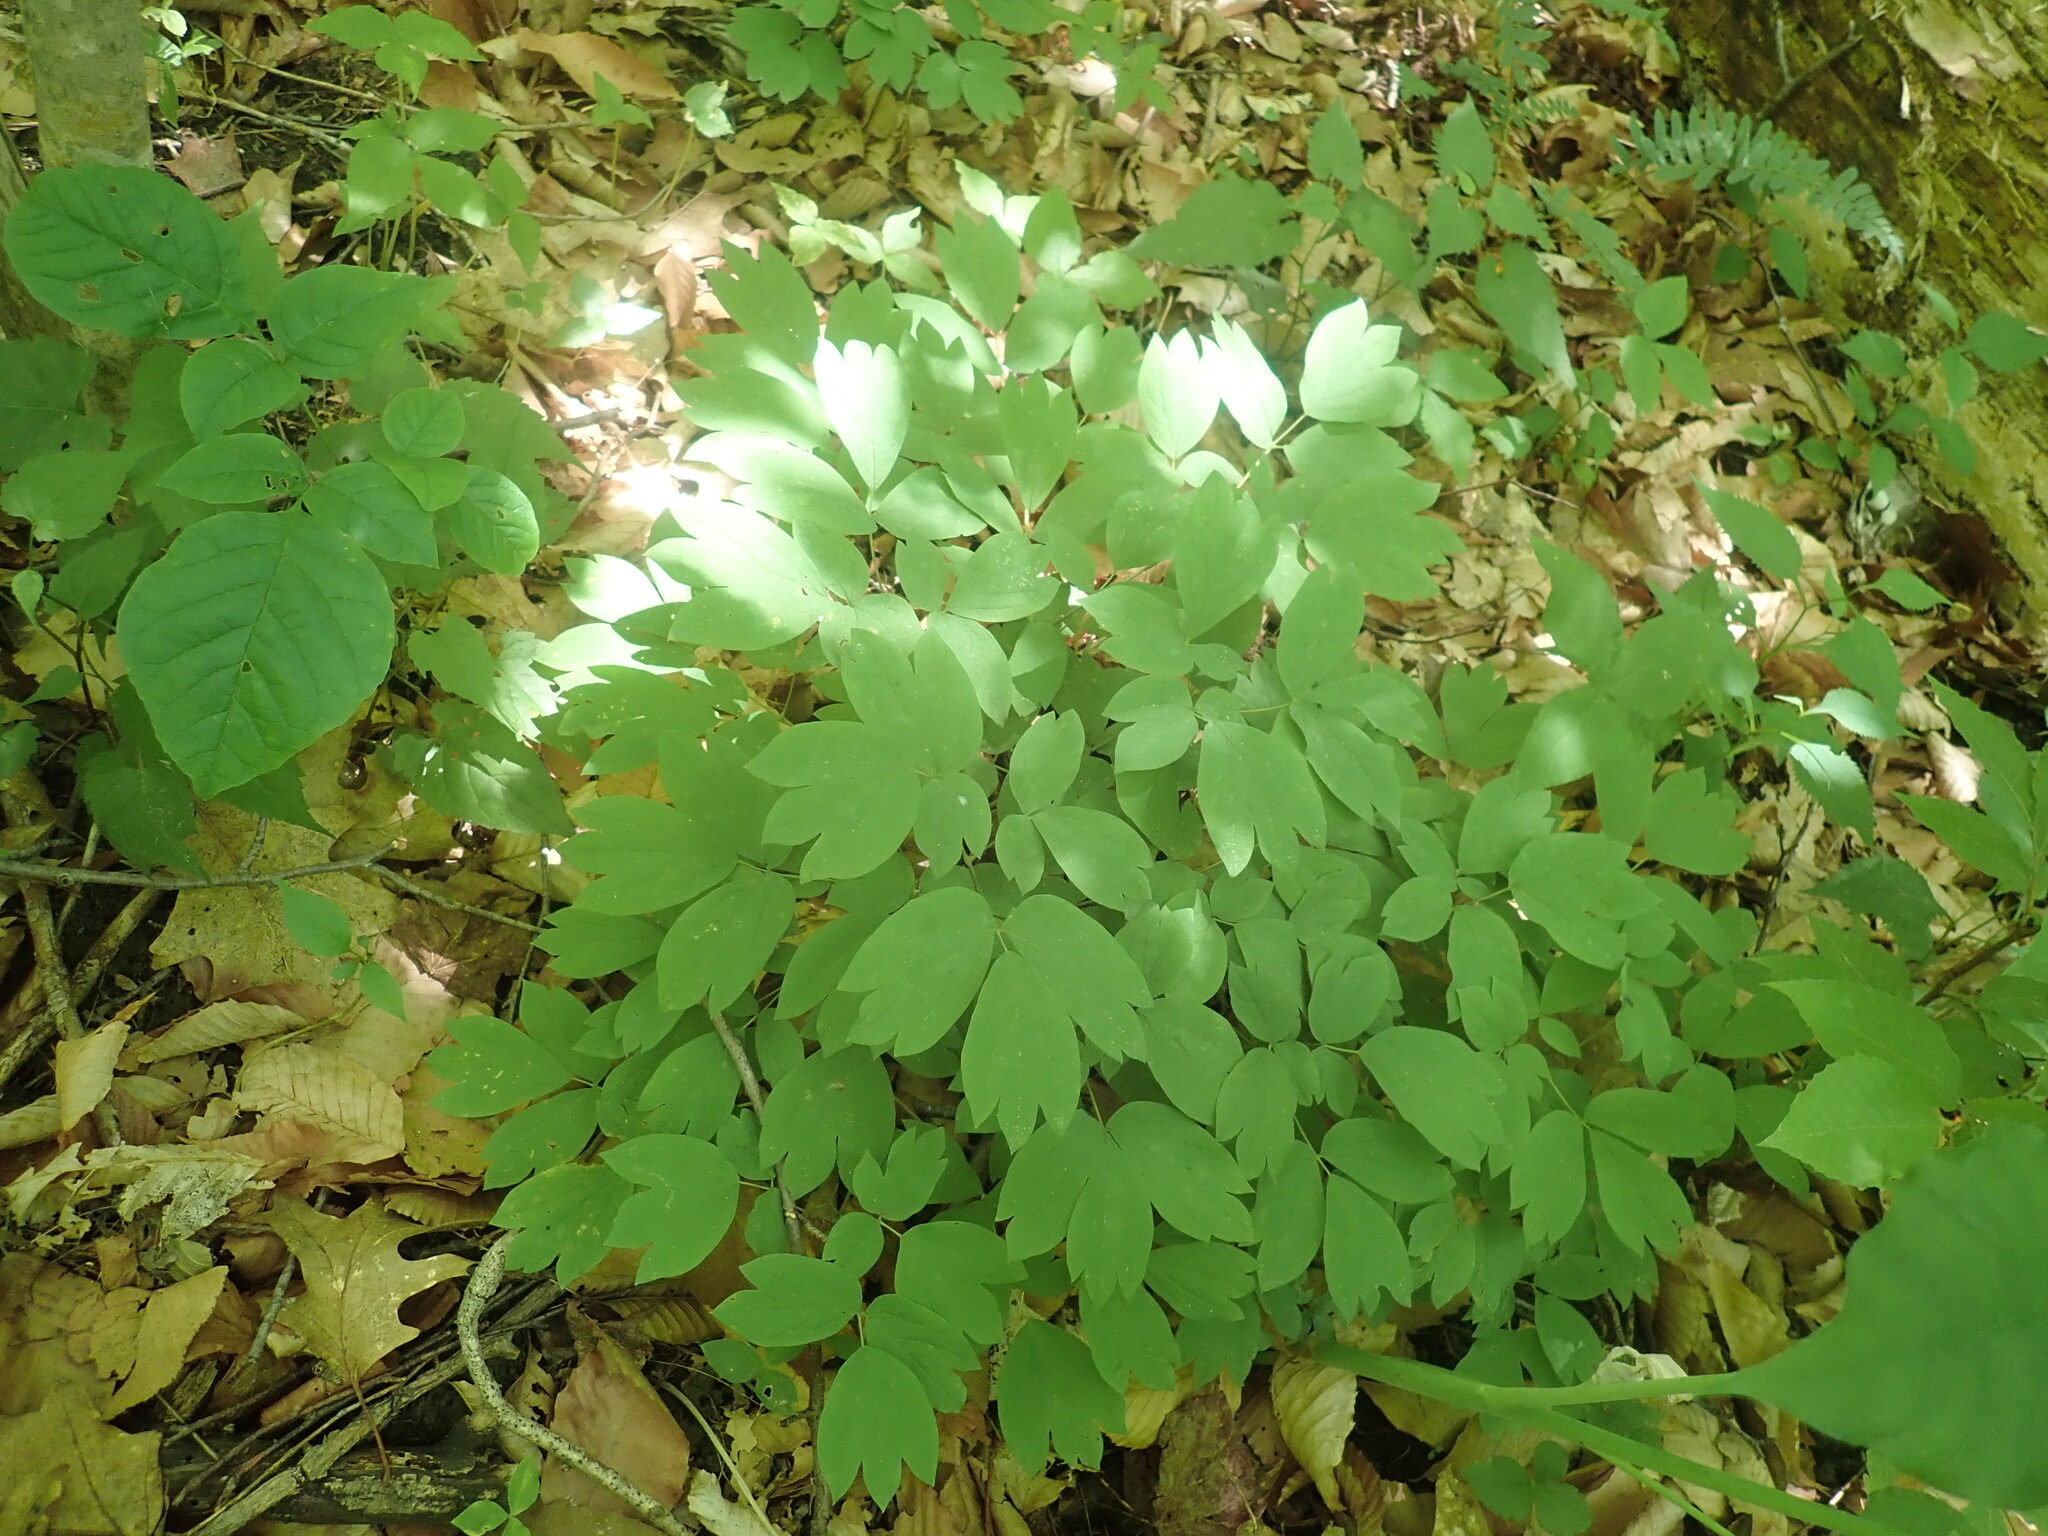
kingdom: Plantae
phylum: Tracheophyta
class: Magnoliopsida
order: Ranunculales
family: Berberidaceae
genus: Caulophyllum
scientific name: Caulophyllum
